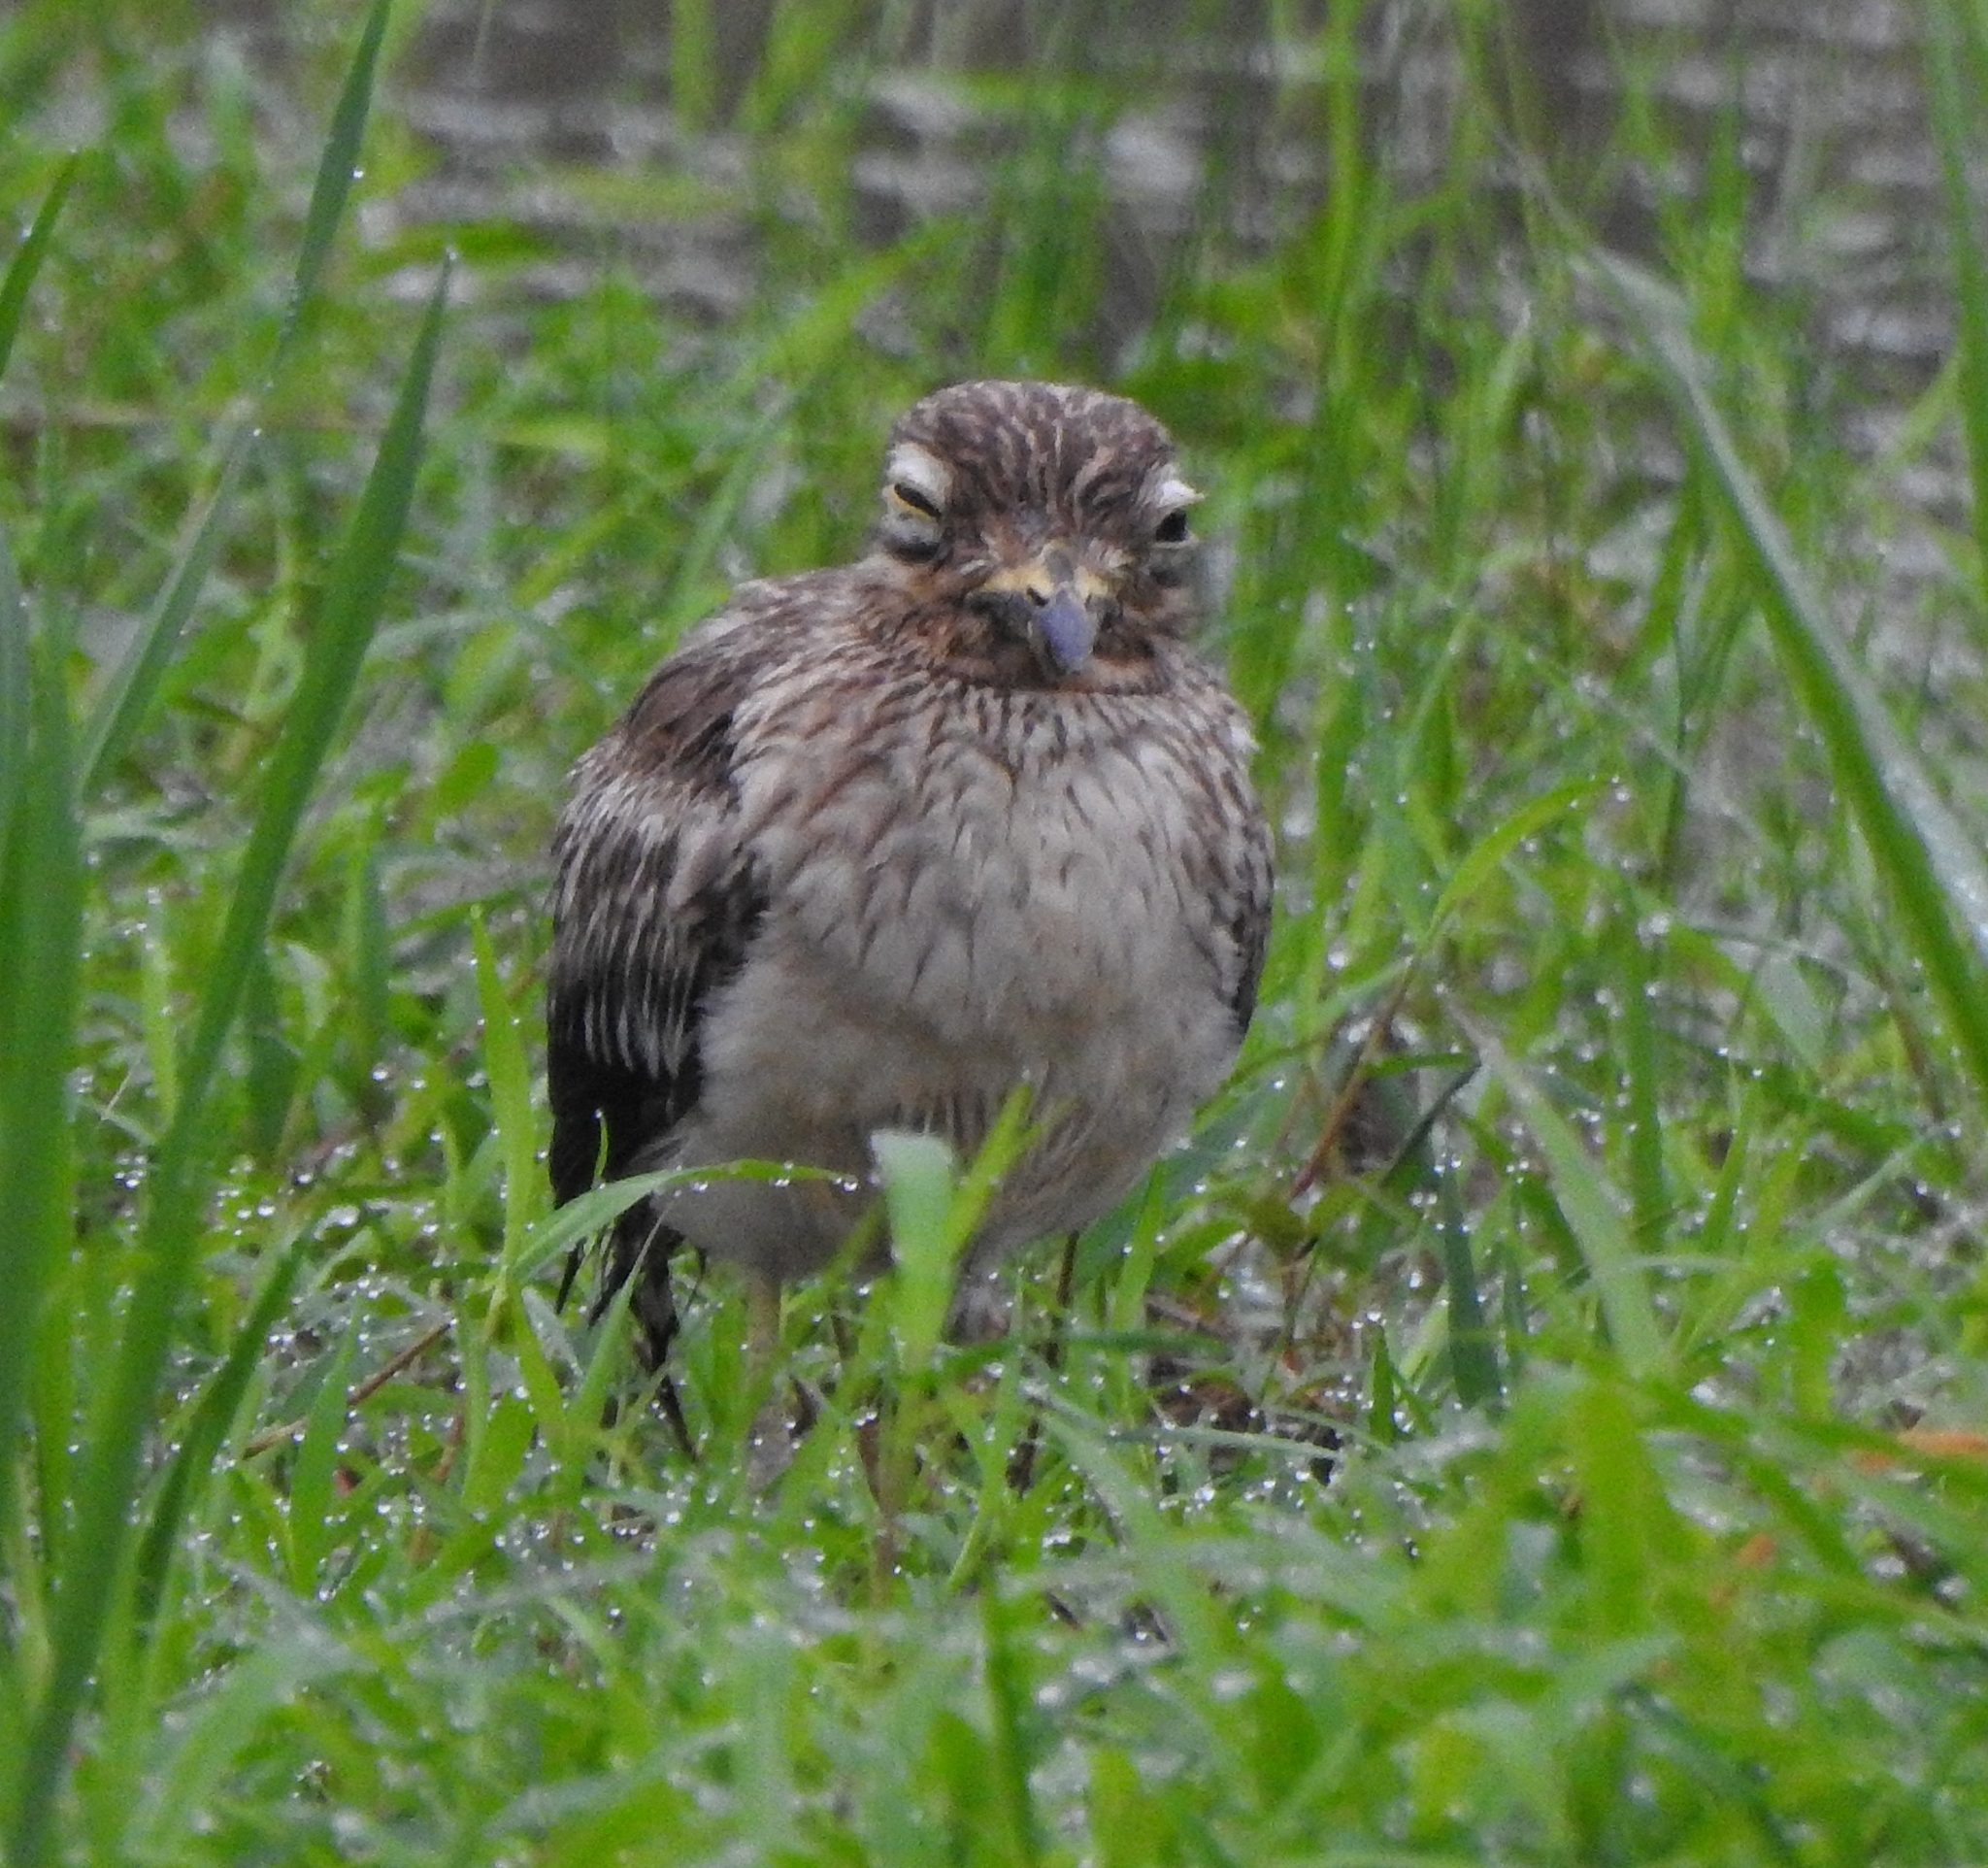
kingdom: Animalia
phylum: Chordata
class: Aves
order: Charadriiformes
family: Burhinidae
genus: Burhinus
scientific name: Burhinus indicus
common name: Indian thick-knee
